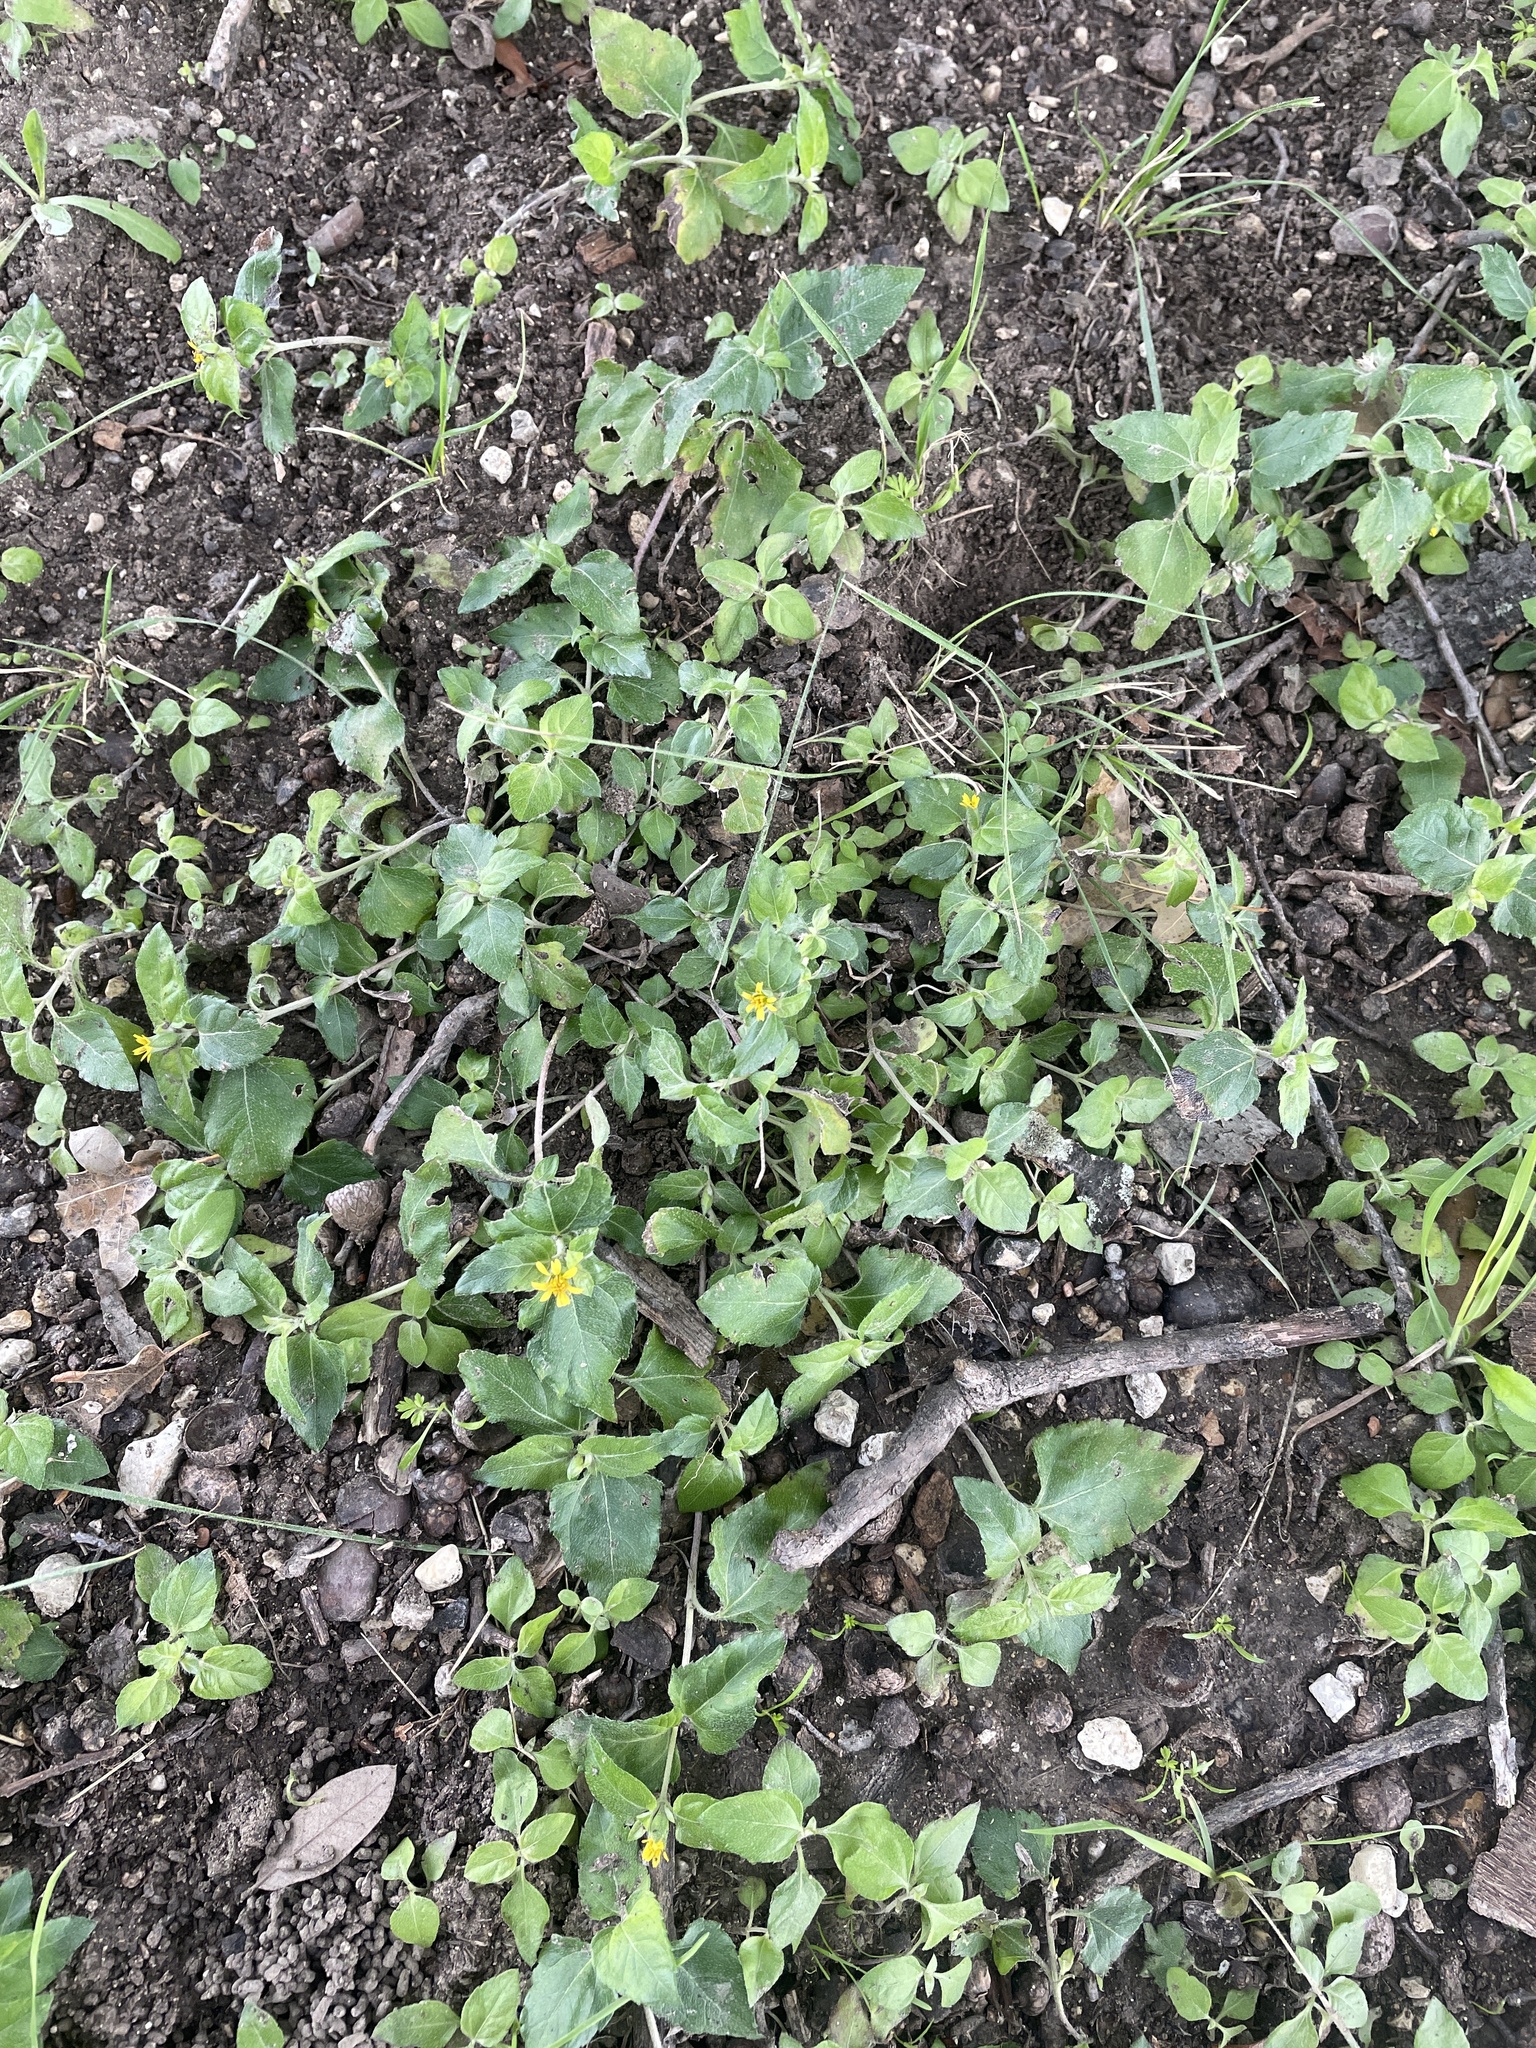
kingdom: Plantae
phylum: Tracheophyta
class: Magnoliopsida
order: Asterales
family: Asteraceae
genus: Calyptocarpus
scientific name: Calyptocarpus vialis
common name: Straggler daisy
